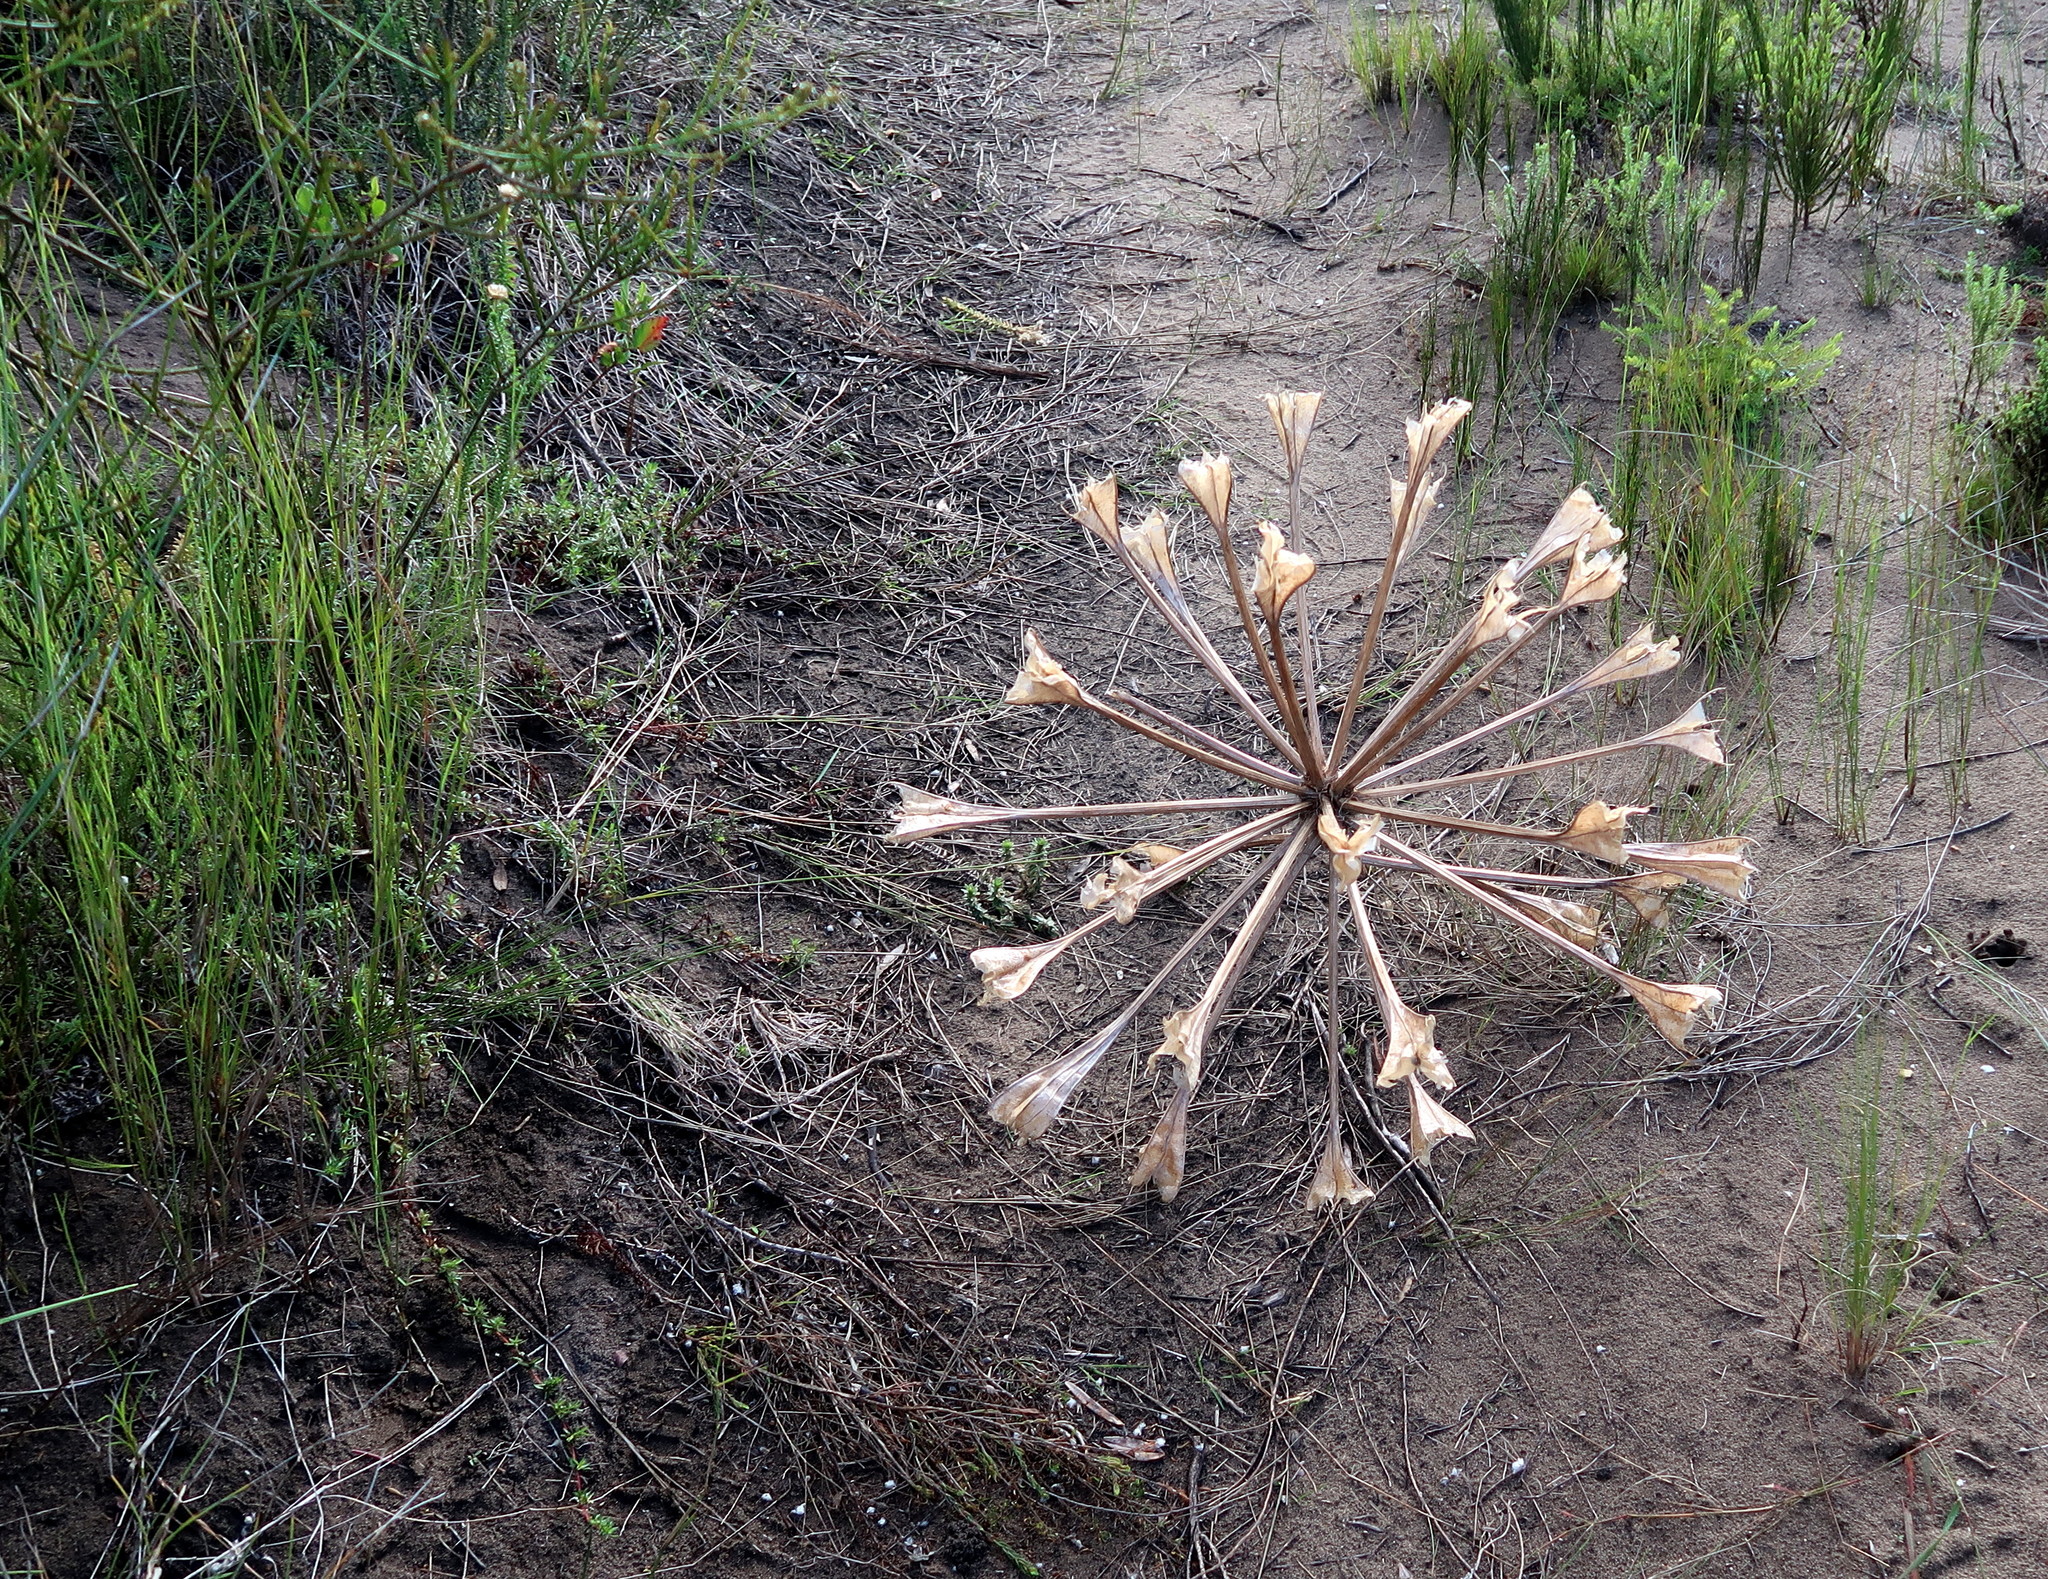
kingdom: Plantae
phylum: Tracheophyta
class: Liliopsida
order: Asparagales
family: Amaryllidaceae
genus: Brunsvigia
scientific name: Brunsvigia orientalis
